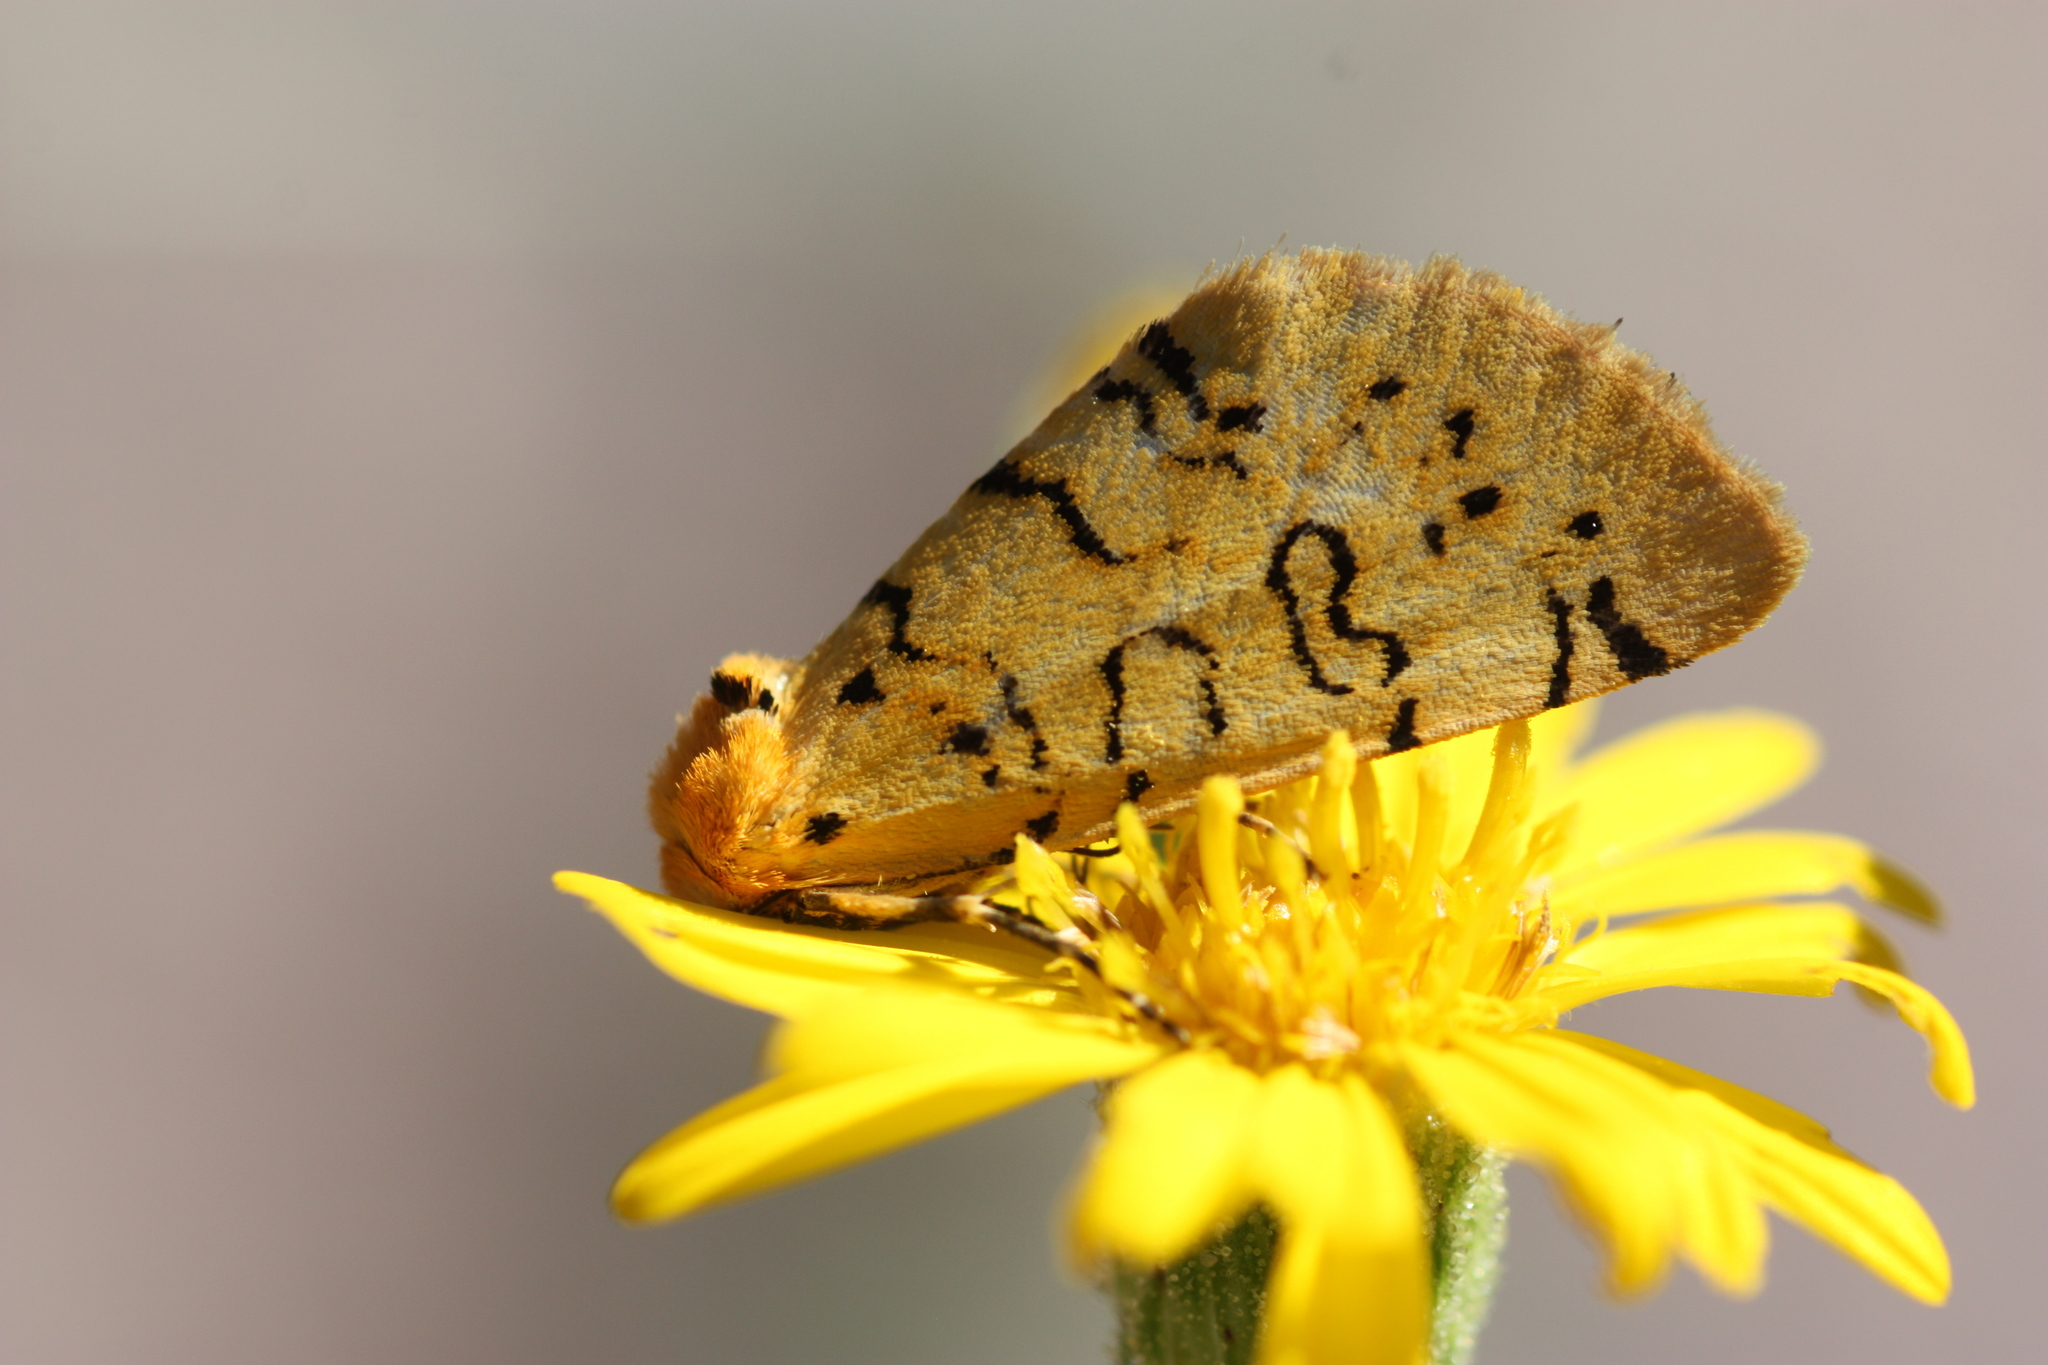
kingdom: Animalia
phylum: Arthropoda
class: Insecta
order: Lepidoptera
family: Noctuidae
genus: Chrysoecia
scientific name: Chrysoecia atrolinea
